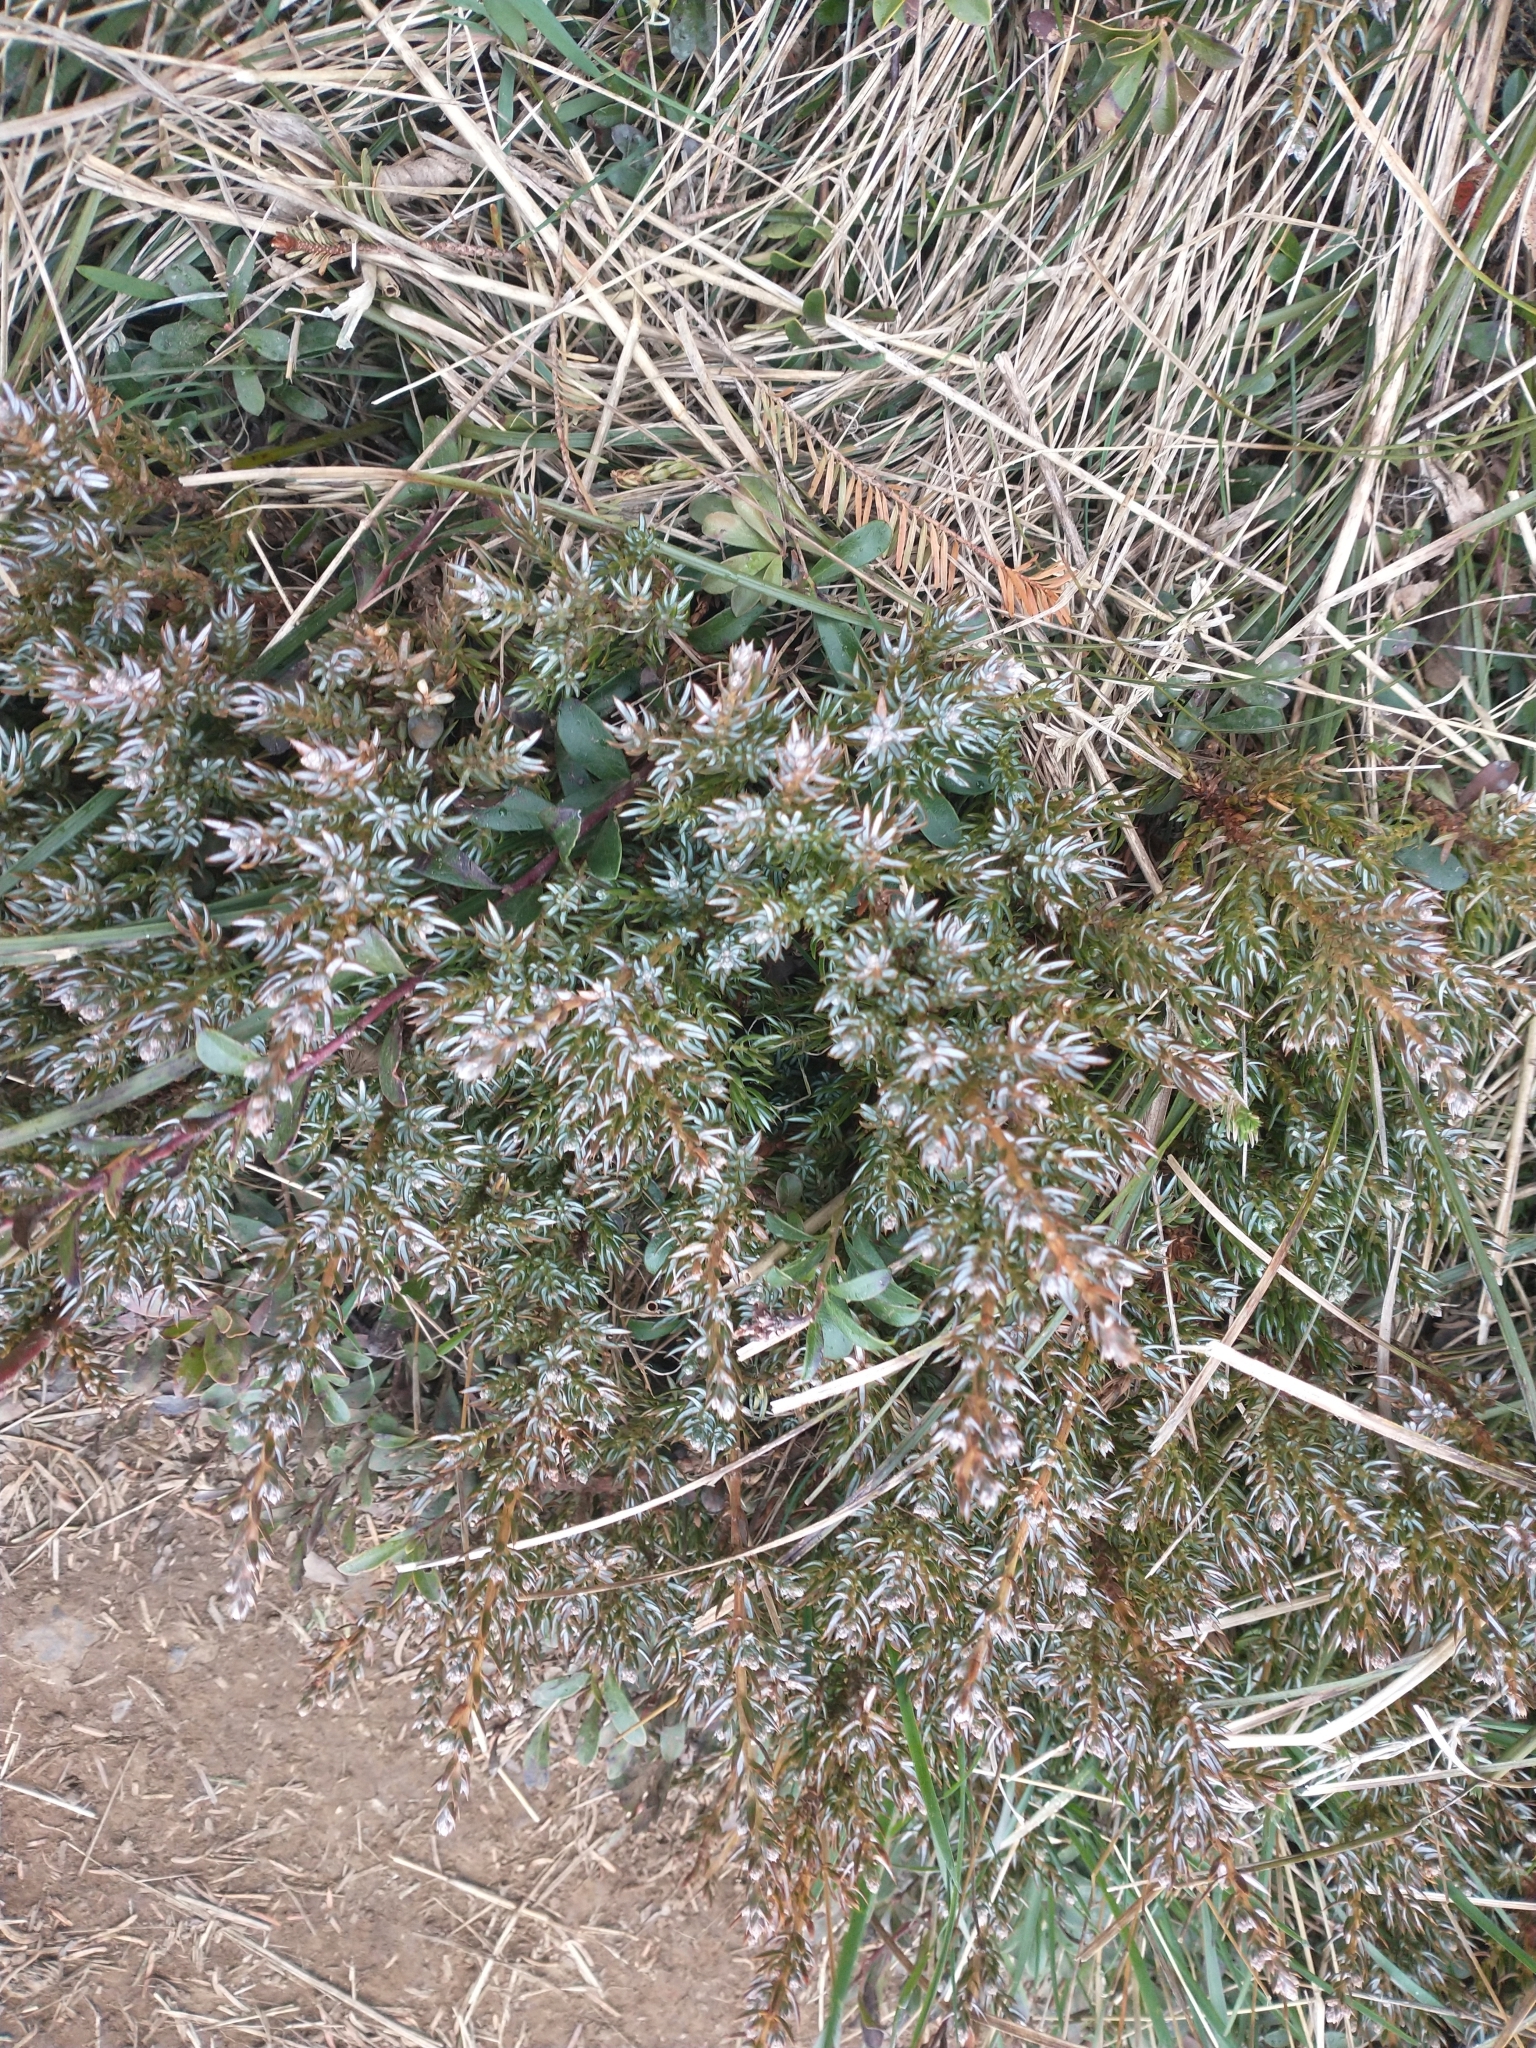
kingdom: Plantae
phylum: Tracheophyta
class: Pinopsida
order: Pinales
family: Cupressaceae
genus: Juniperus
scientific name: Juniperus communis
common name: Common juniper
